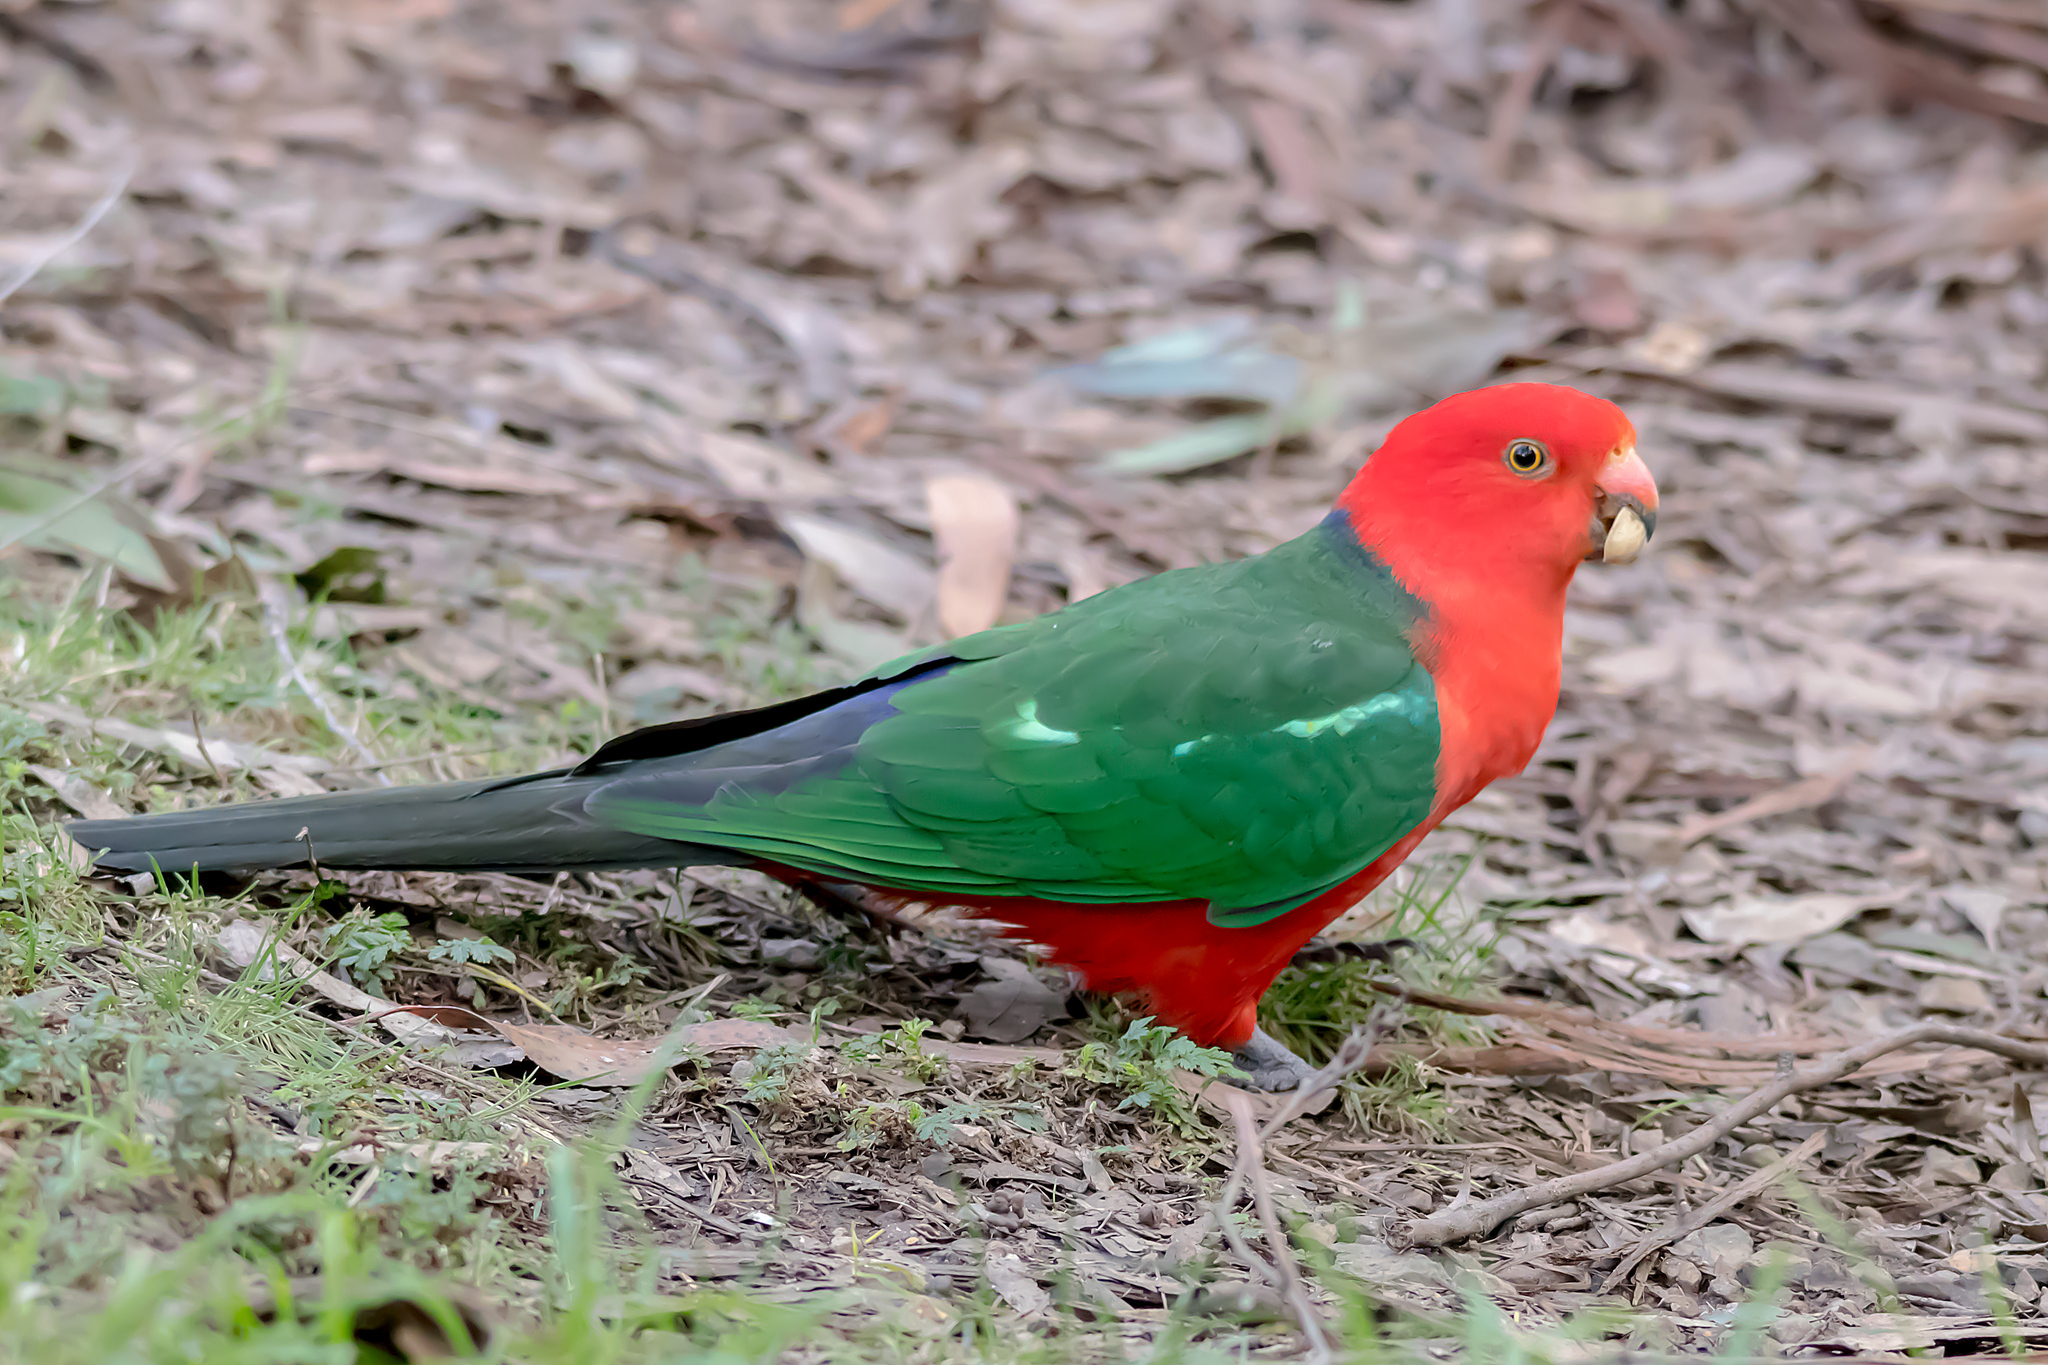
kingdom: Animalia
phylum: Chordata
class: Aves
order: Psittaciformes
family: Psittacidae
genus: Alisterus
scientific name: Alisterus scapularis
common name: Australian king parrot
